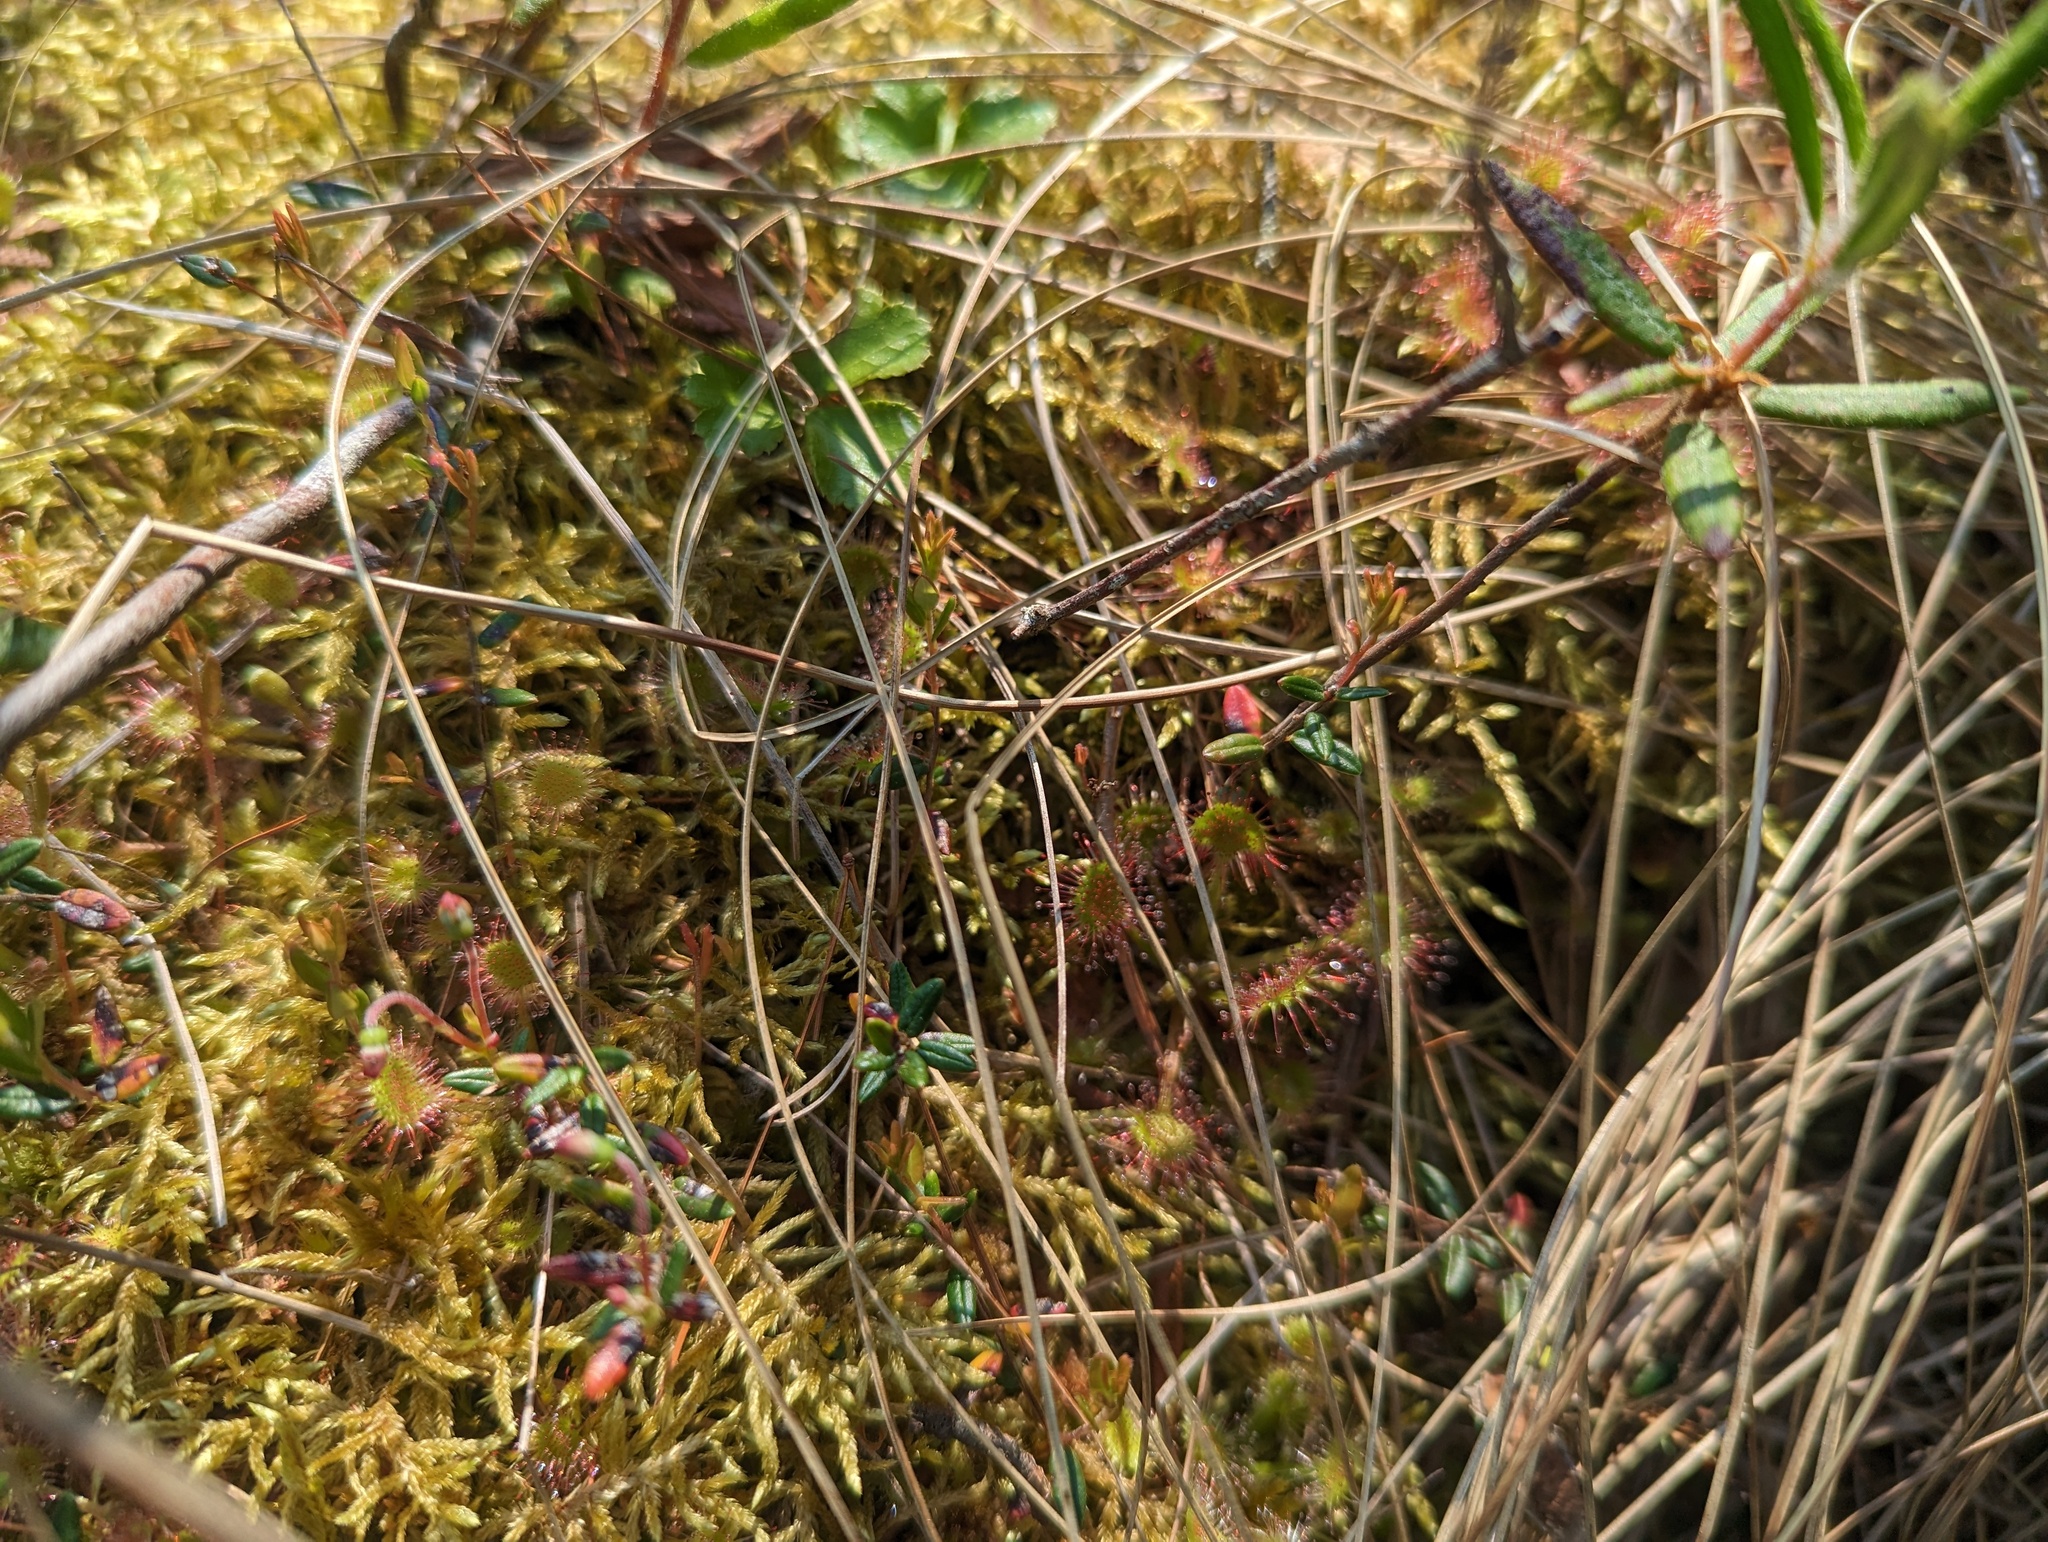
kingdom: Plantae
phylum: Tracheophyta
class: Magnoliopsida
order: Caryophyllales
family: Droseraceae
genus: Drosera
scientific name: Drosera rotundifolia
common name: Round-leaved sundew
